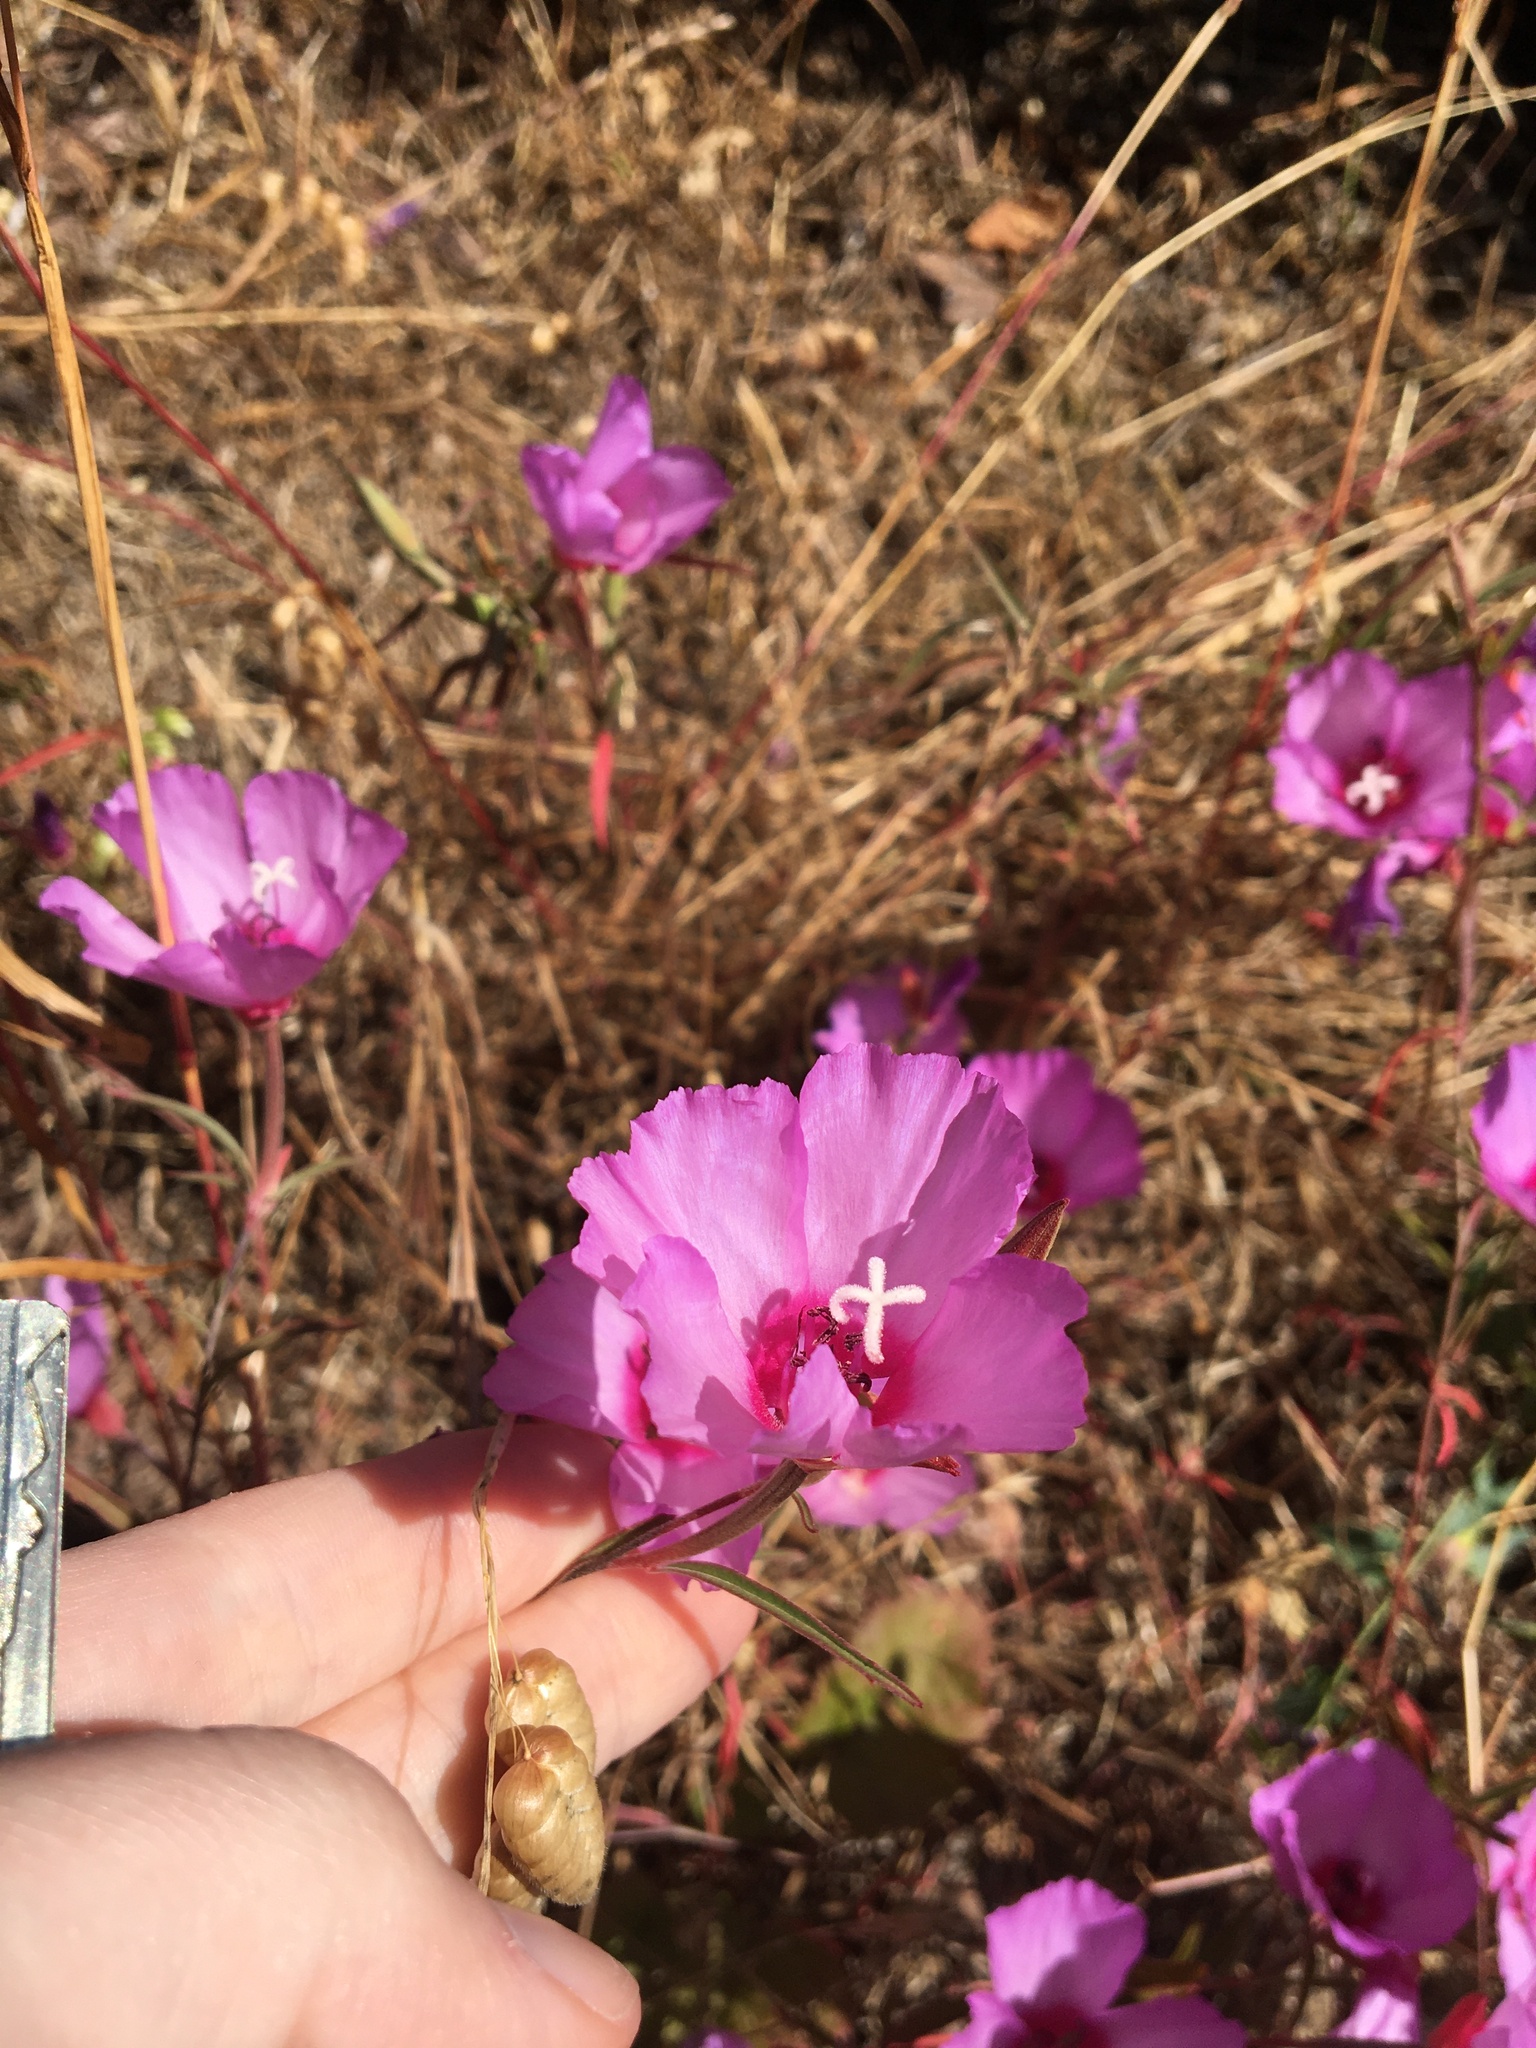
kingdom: Plantae
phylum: Tracheophyta
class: Magnoliopsida
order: Myrtales
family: Onagraceae
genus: Clarkia
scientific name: Clarkia rubicunda
